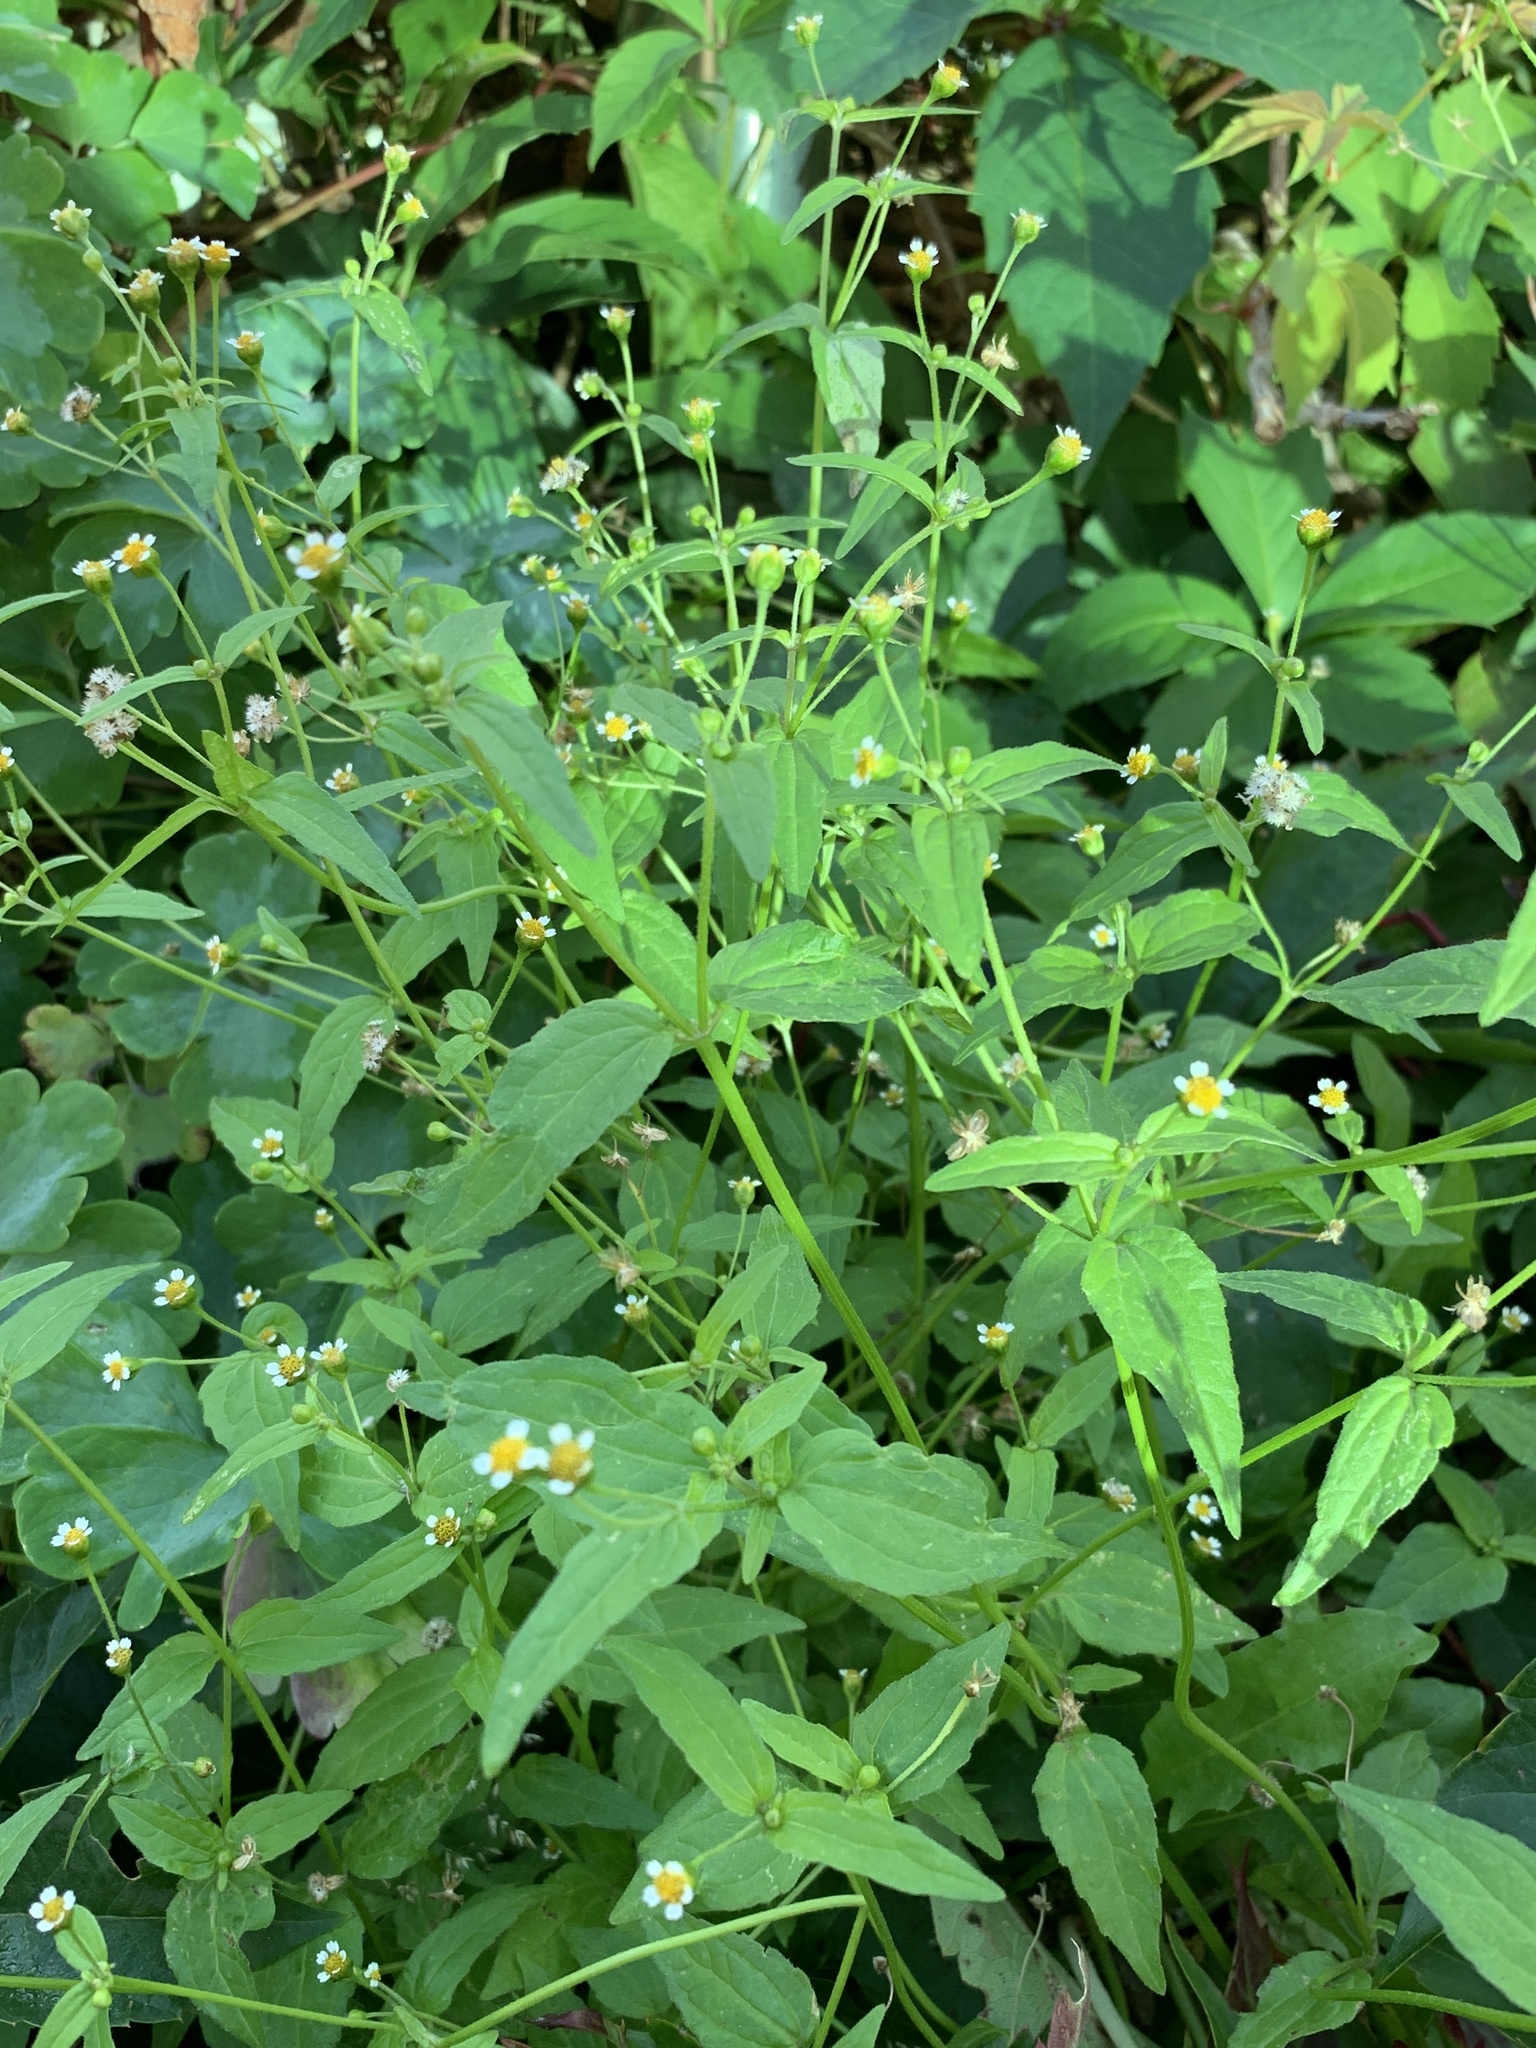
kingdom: Plantae
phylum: Tracheophyta
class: Magnoliopsida
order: Asterales
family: Asteraceae
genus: Galinsoga
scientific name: Galinsoga parviflora
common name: Gallant soldier
